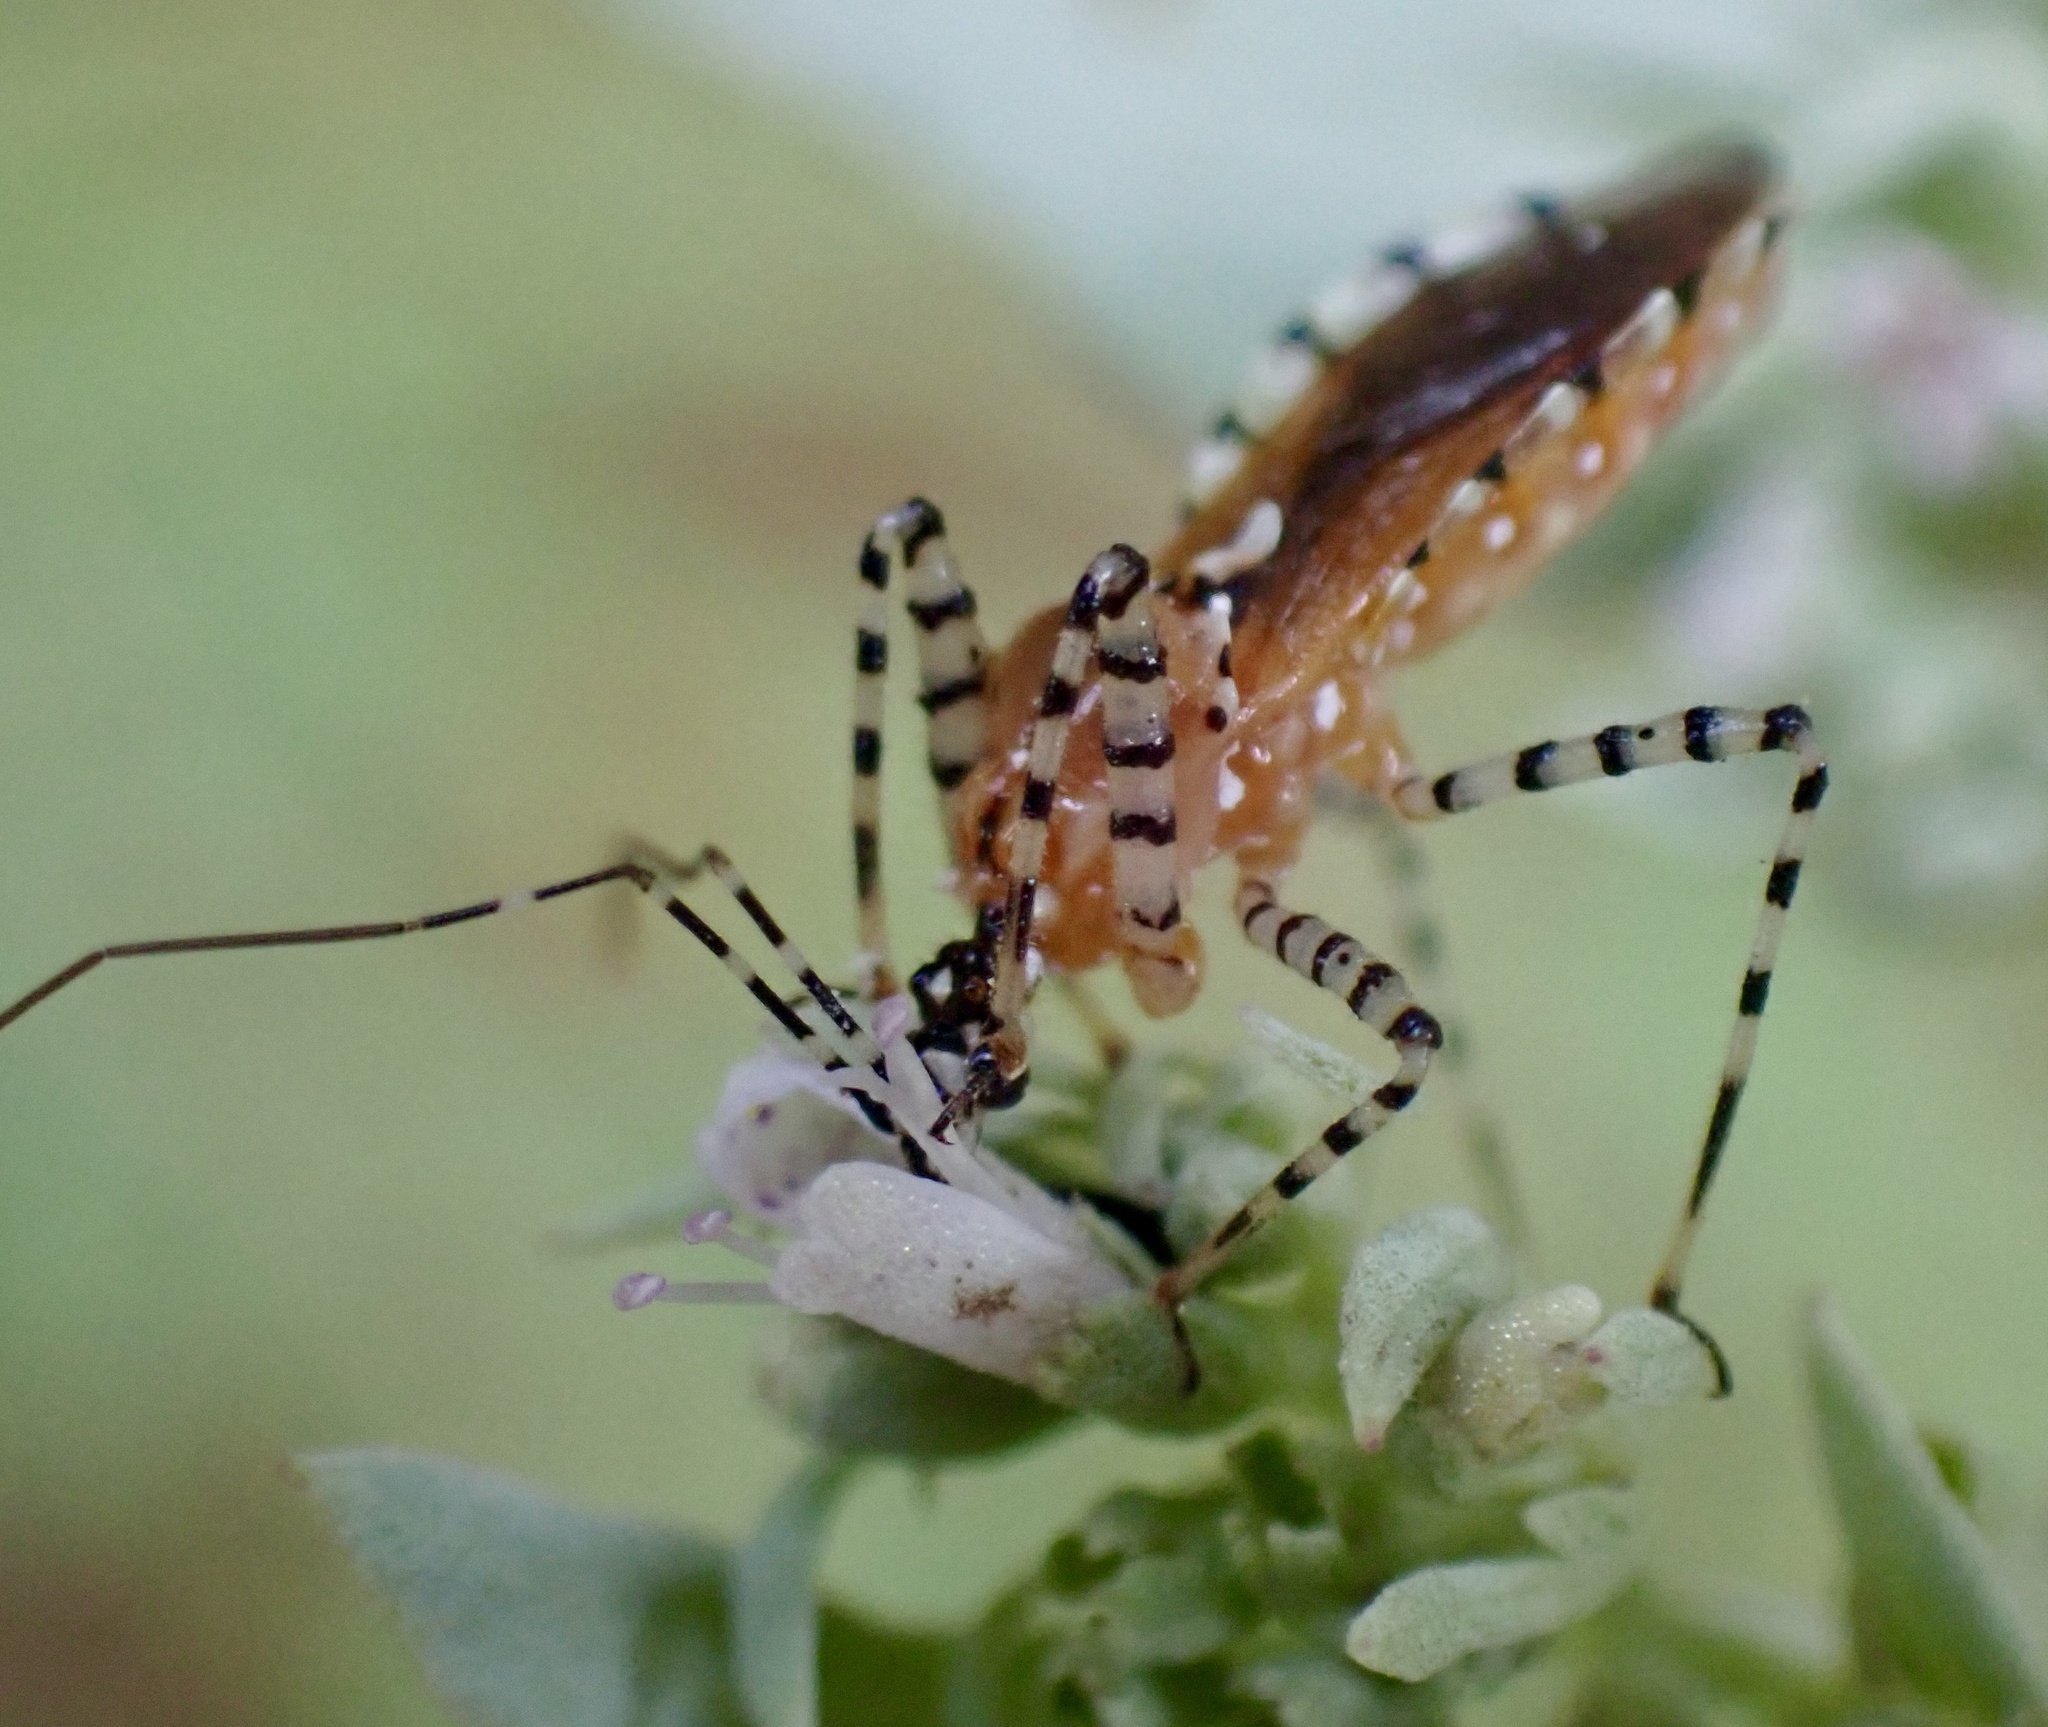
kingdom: Animalia
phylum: Arthropoda
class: Insecta
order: Hemiptera
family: Reduviidae
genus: Pselliopus
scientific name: Pselliopus cinctus
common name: Ringed assassin bug
